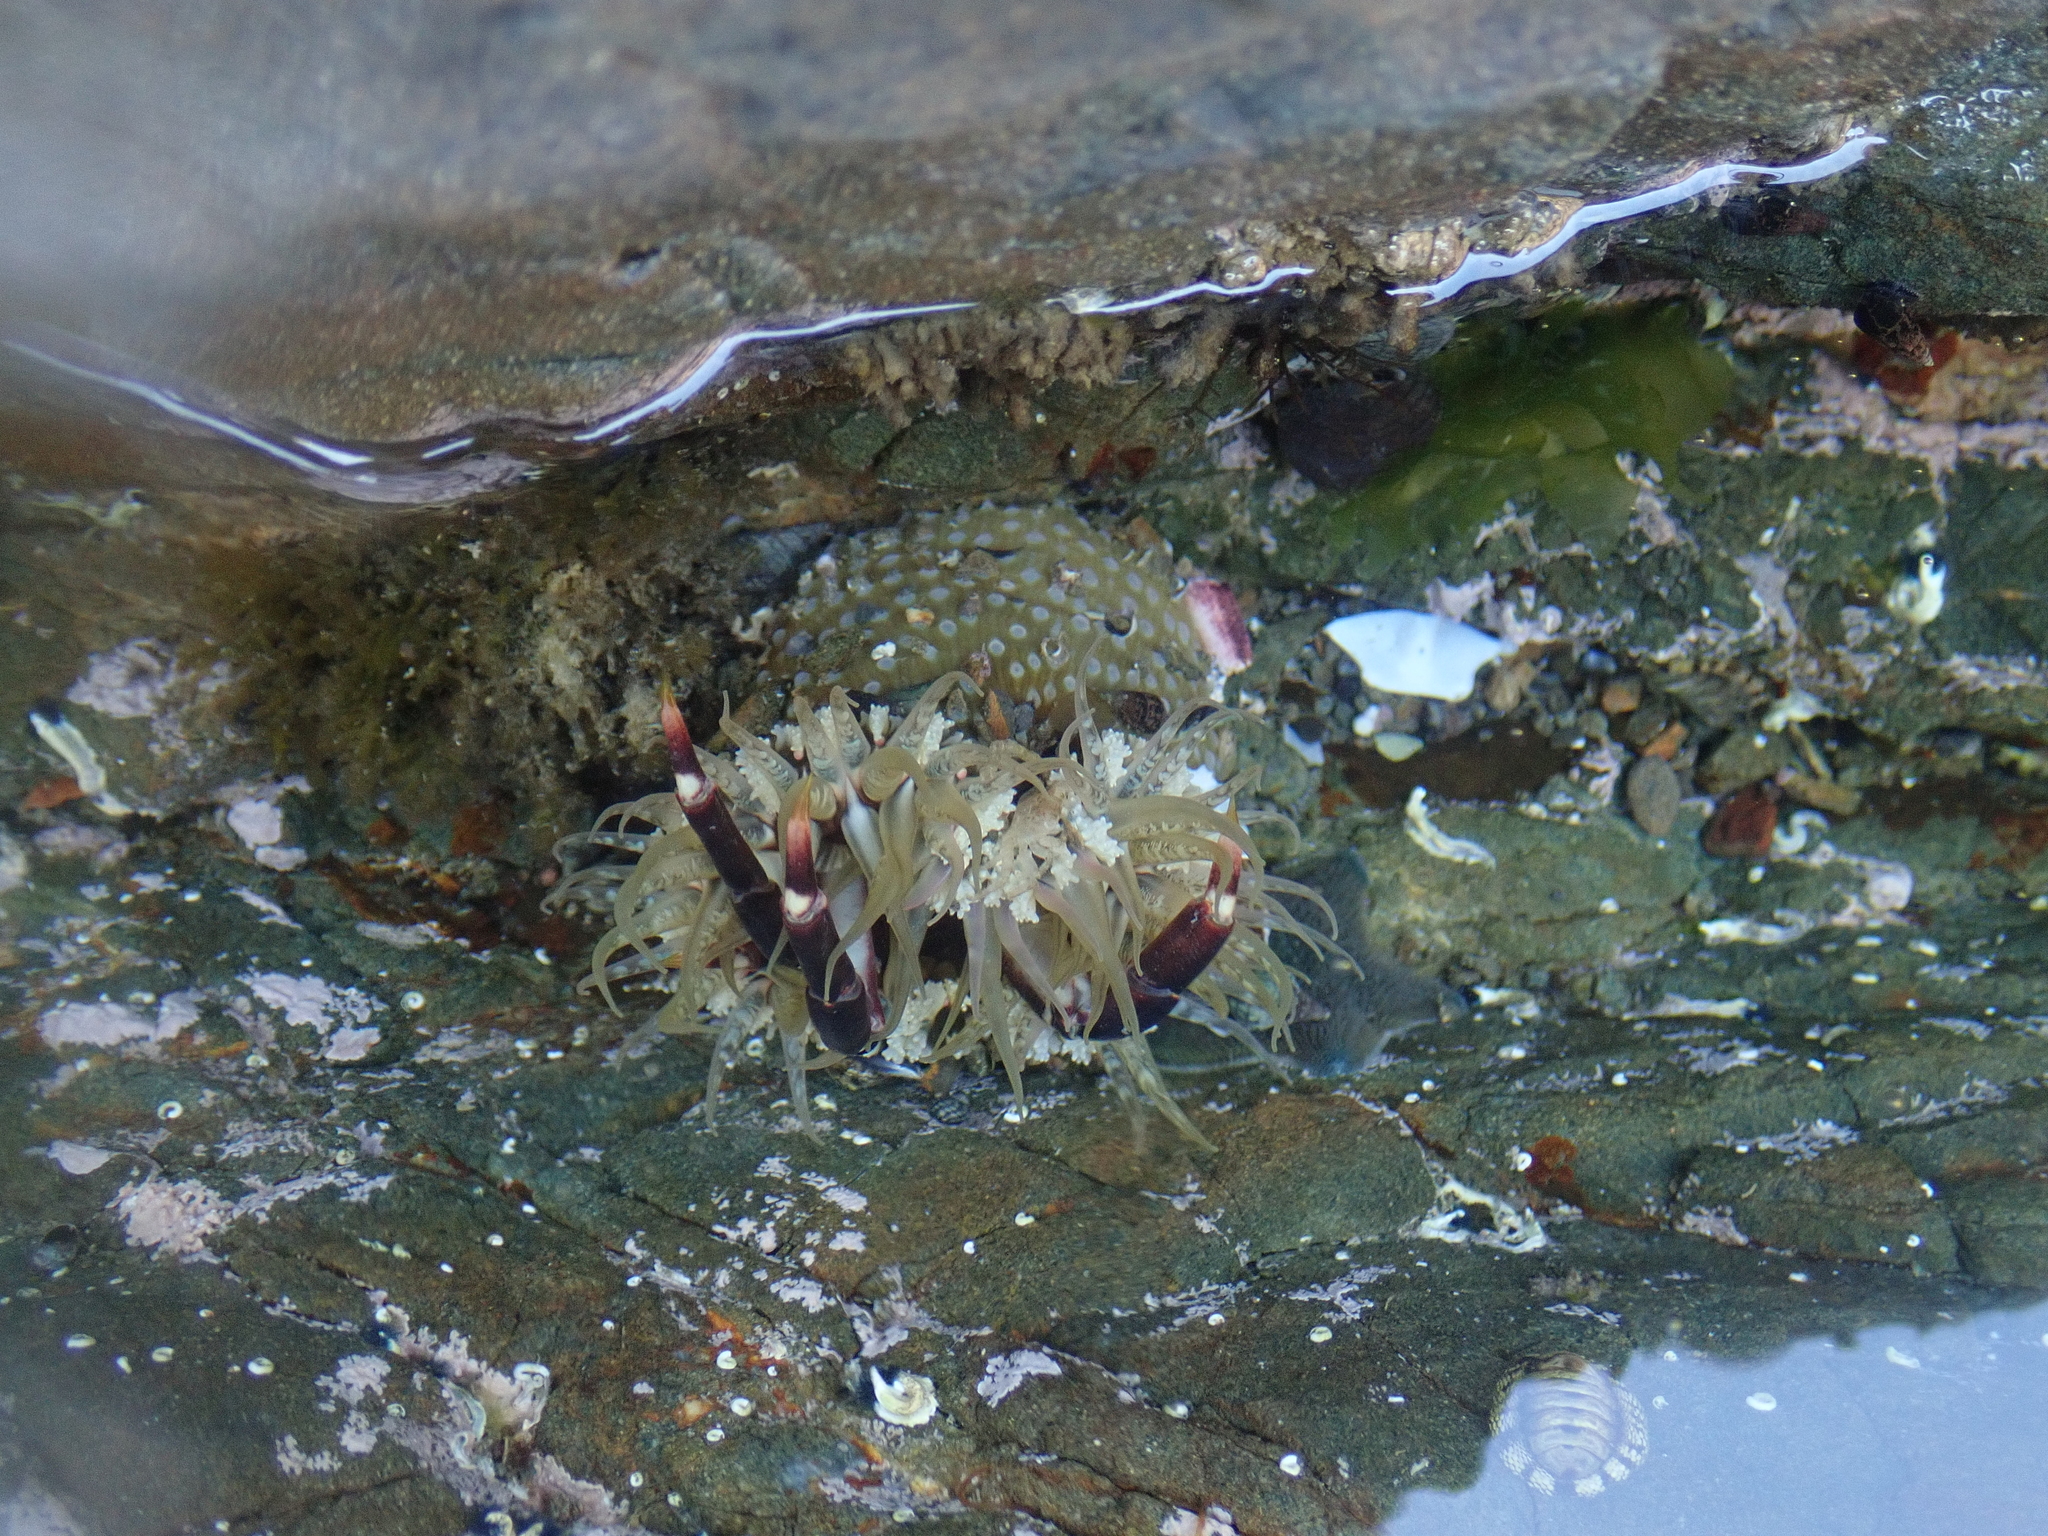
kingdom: Animalia
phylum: Cnidaria
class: Anthozoa
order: Actiniaria
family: Actiniidae
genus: Oulactis
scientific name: Oulactis muscosa
